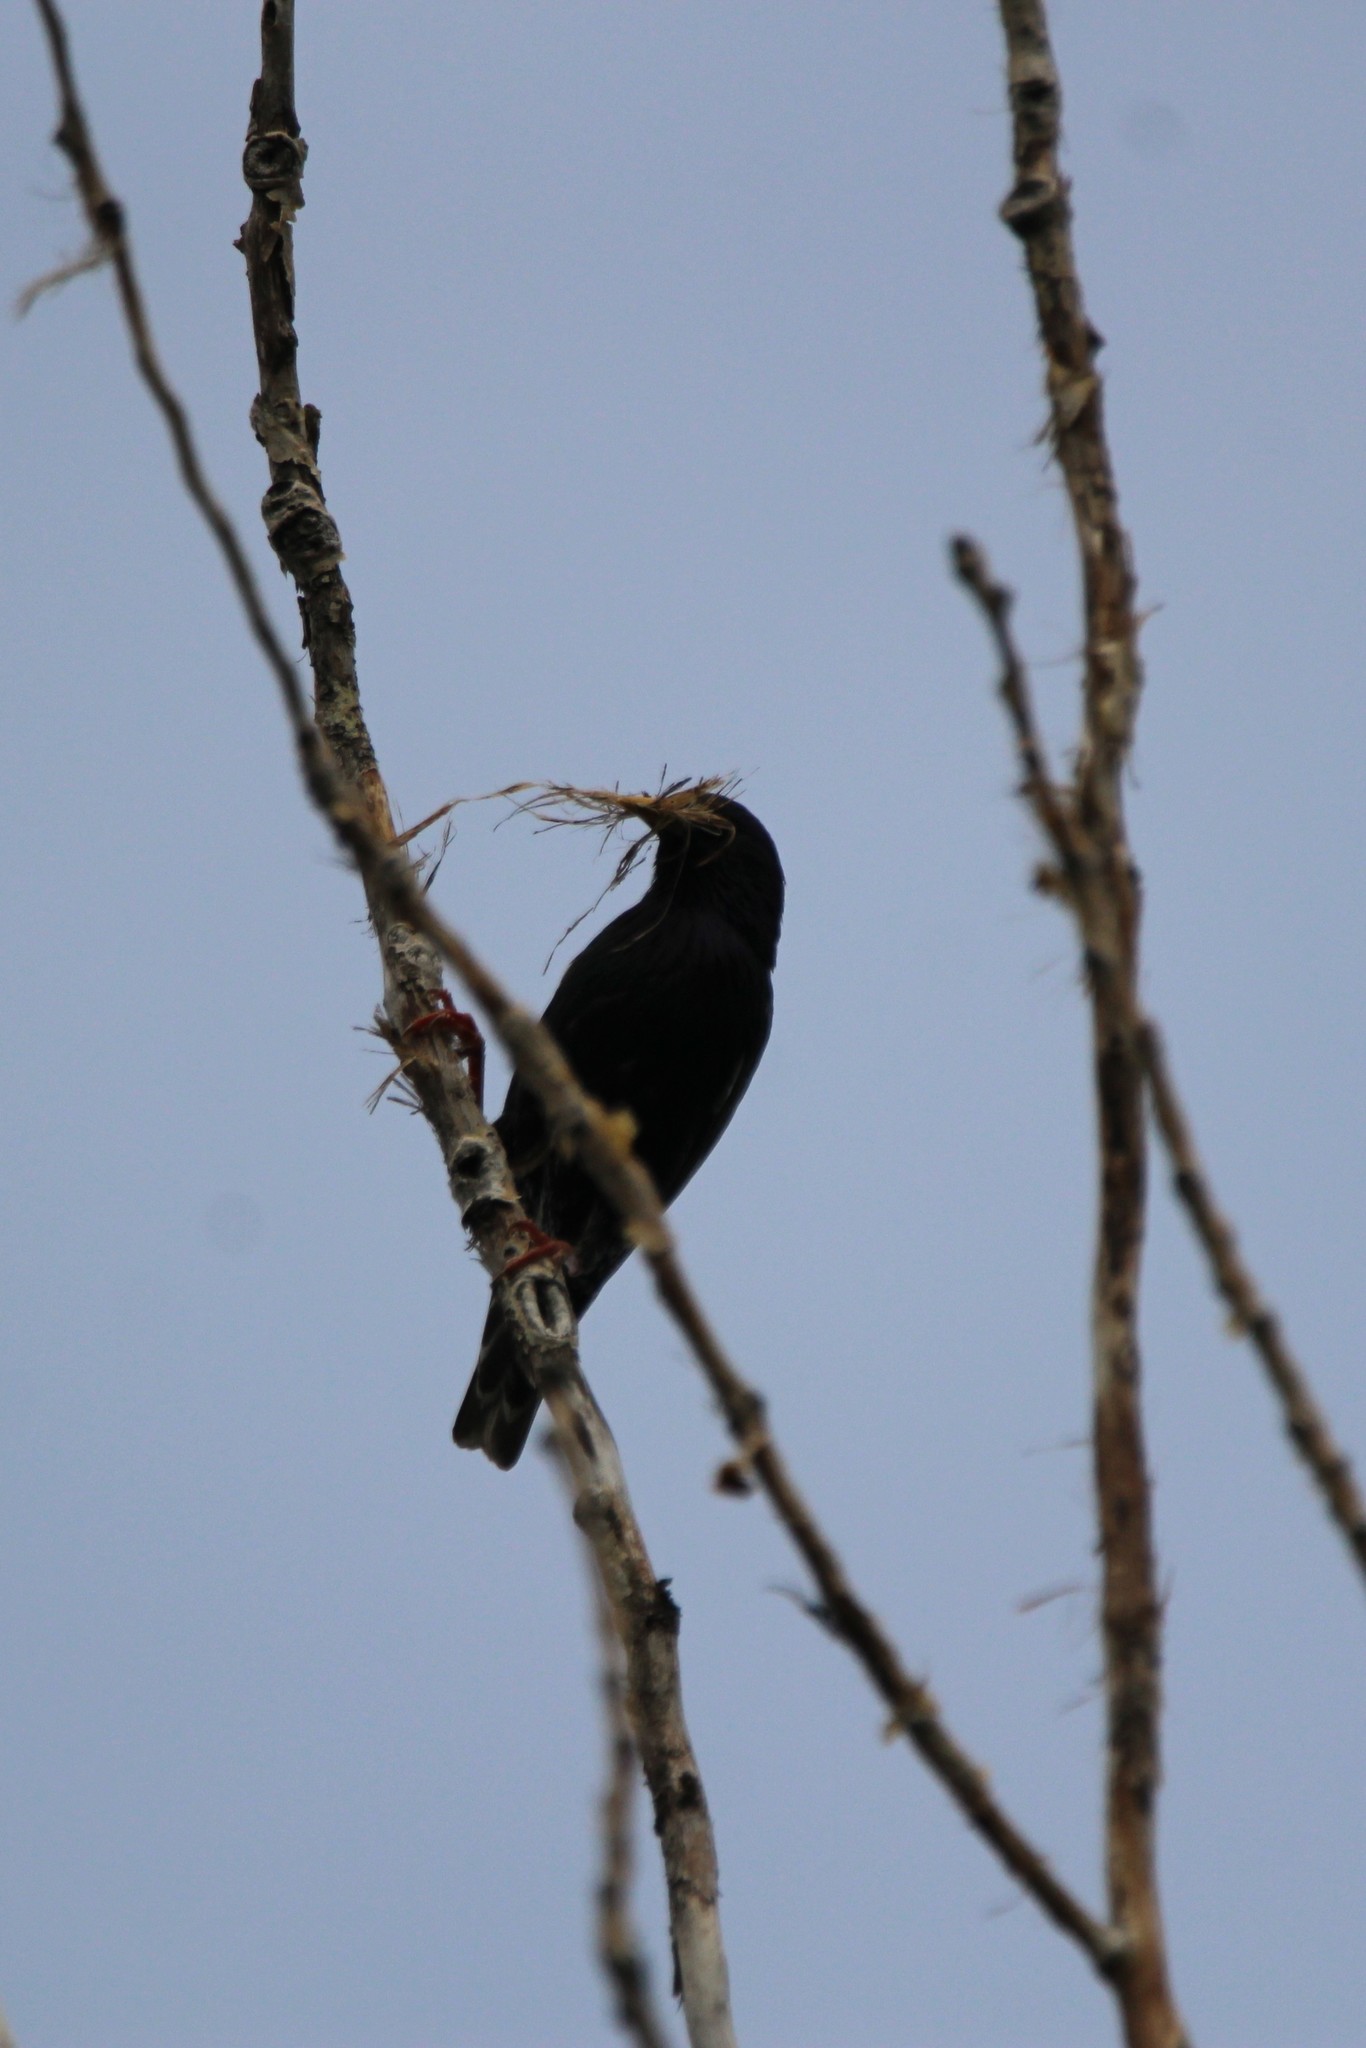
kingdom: Animalia
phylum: Chordata
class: Aves
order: Passeriformes
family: Sturnidae
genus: Sturnus
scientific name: Sturnus vulgaris
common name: Common starling
